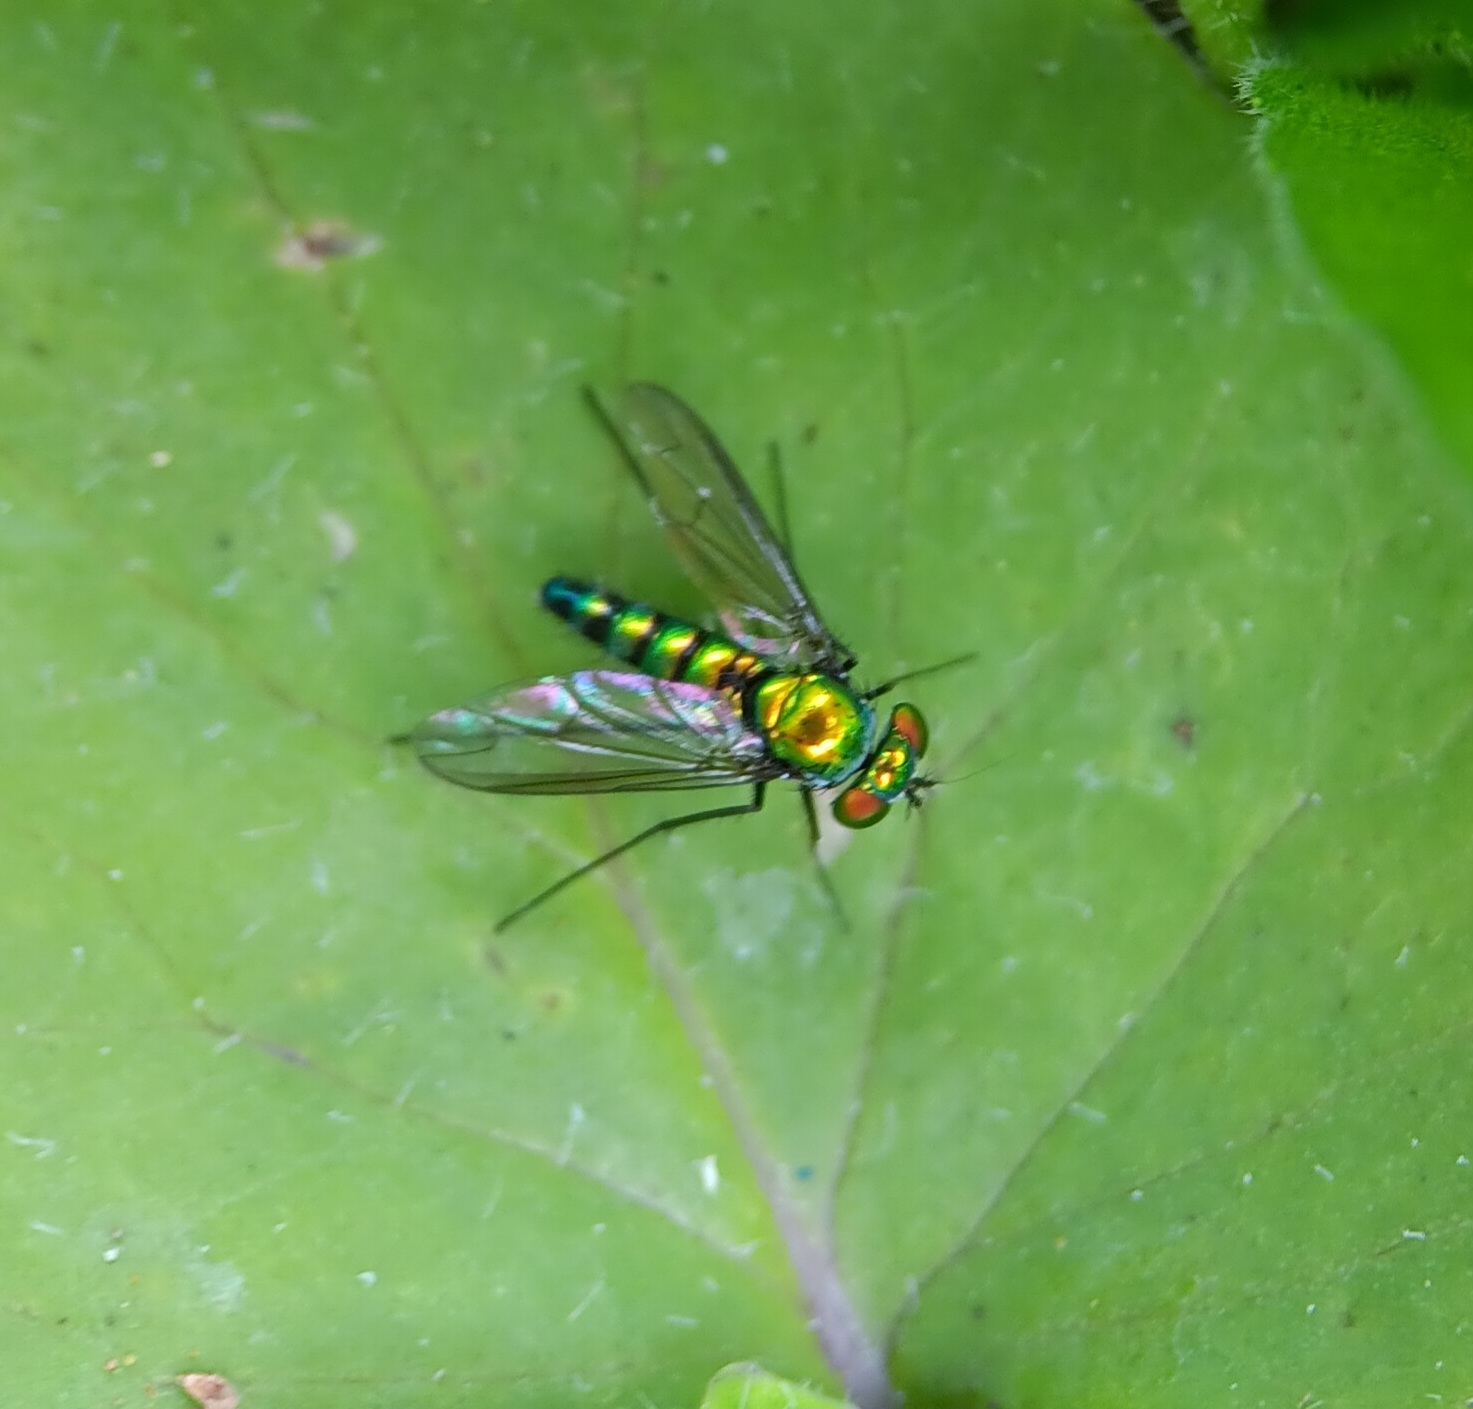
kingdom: Animalia
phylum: Arthropoda
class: Insecta
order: Diptera
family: Dolichopodidae
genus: Condylostylus
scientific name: Condylostylus longicornis
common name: Long-legged fly
